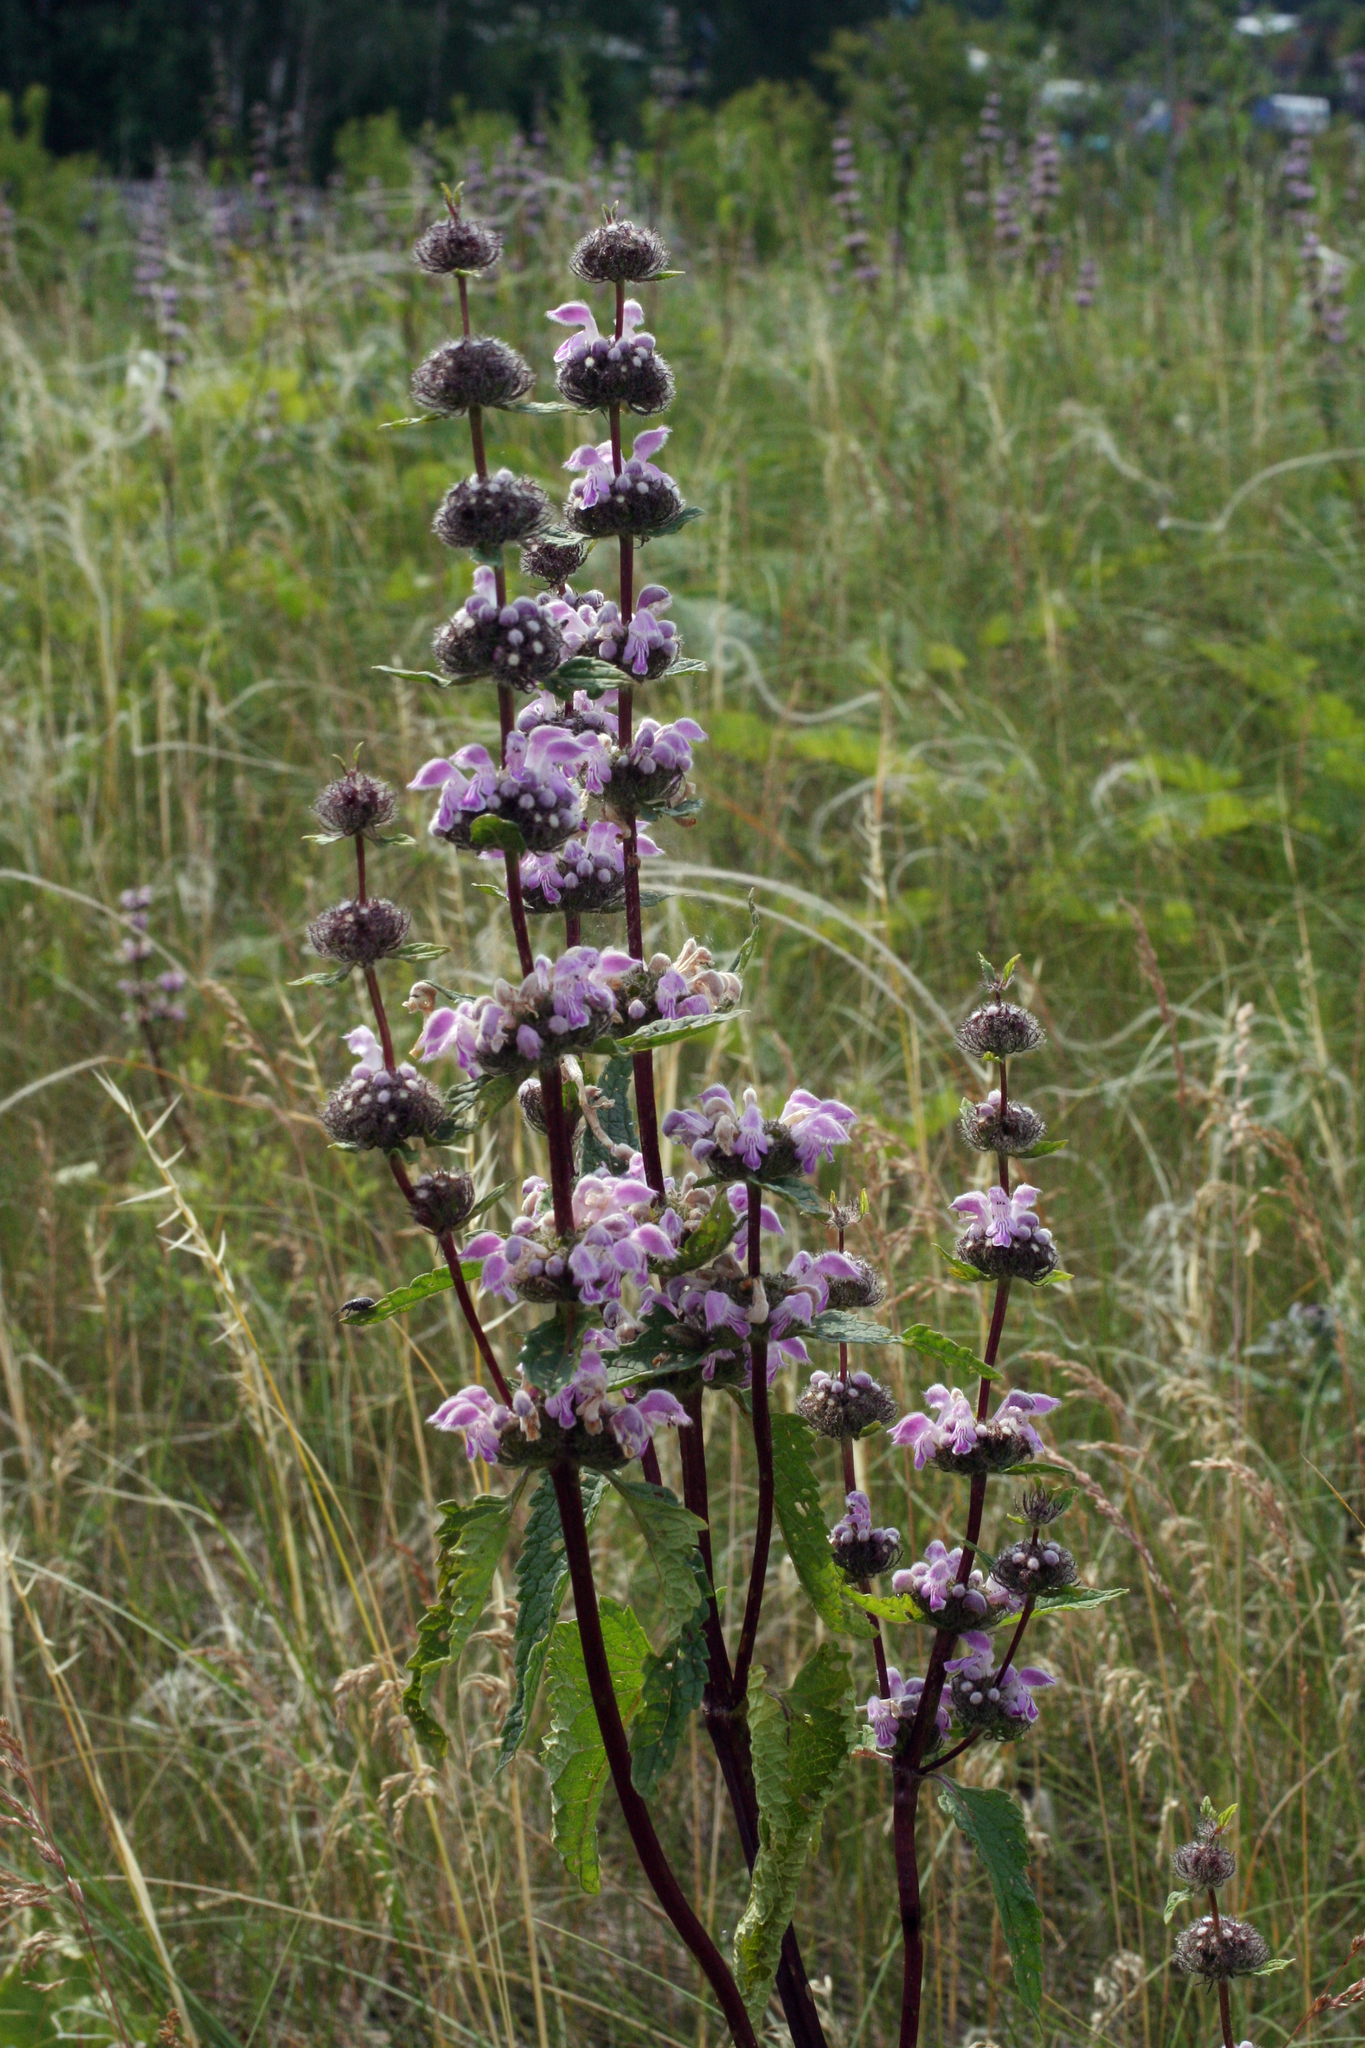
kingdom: Plantae
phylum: Tracheophyta
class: Magnoliopsida
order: Lamiales
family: Lamiaceae
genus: Phlomoides
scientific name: Phlomoides tuberosa
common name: Tuberous jerusalem sage
